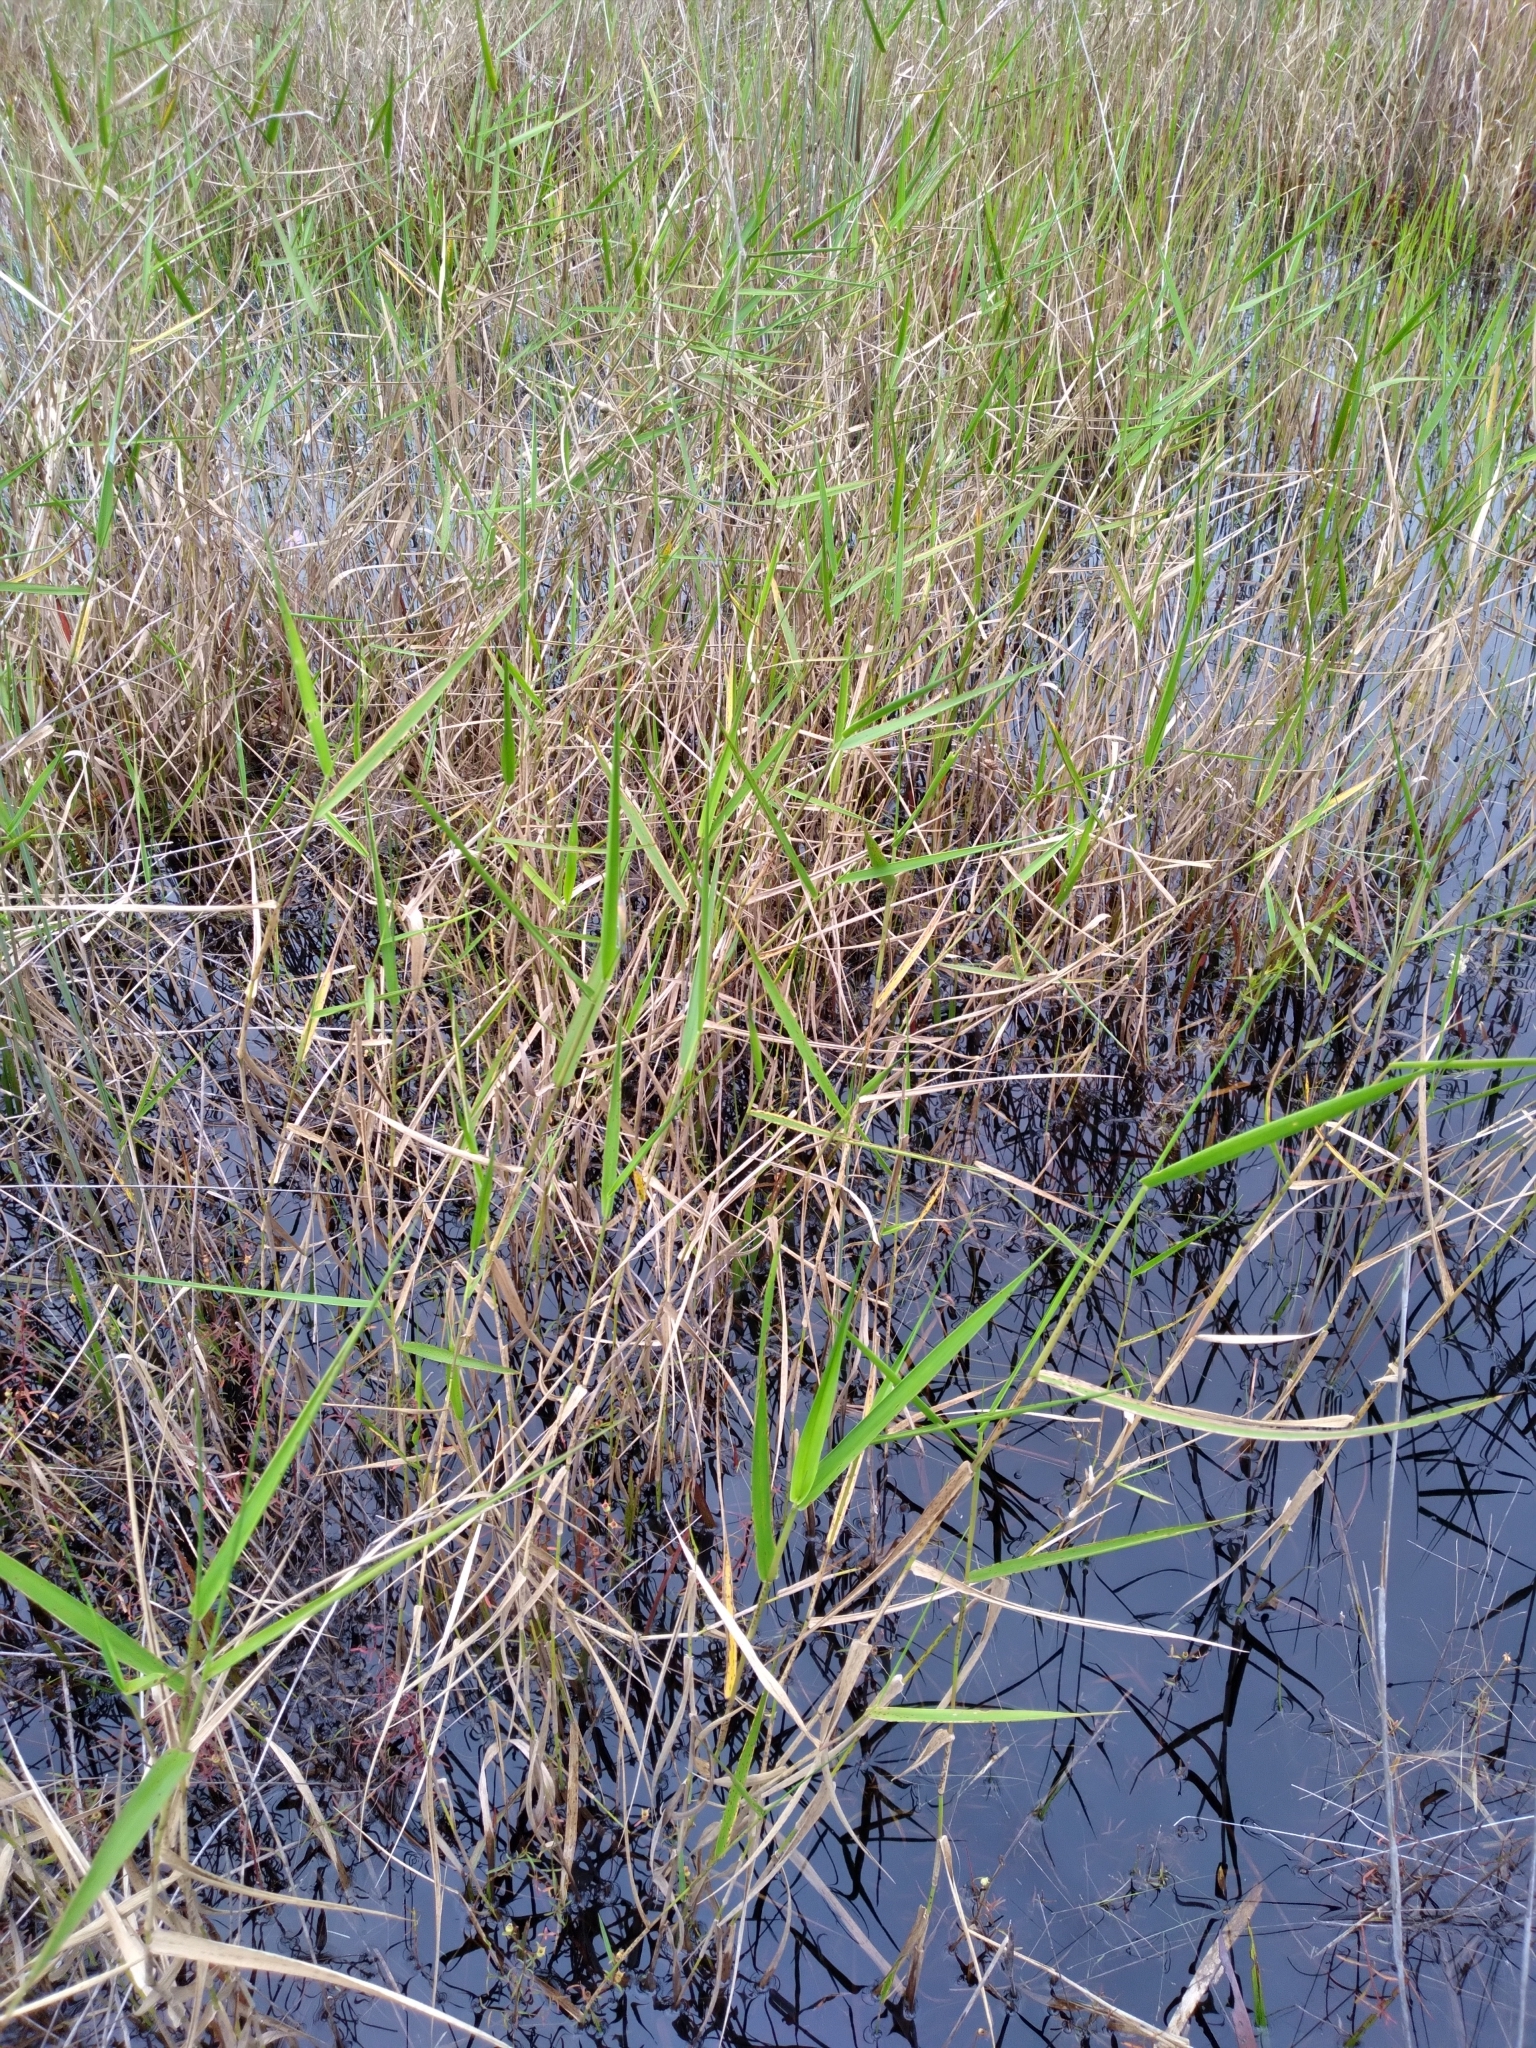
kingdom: Plantae
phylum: Tracheophyta
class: Liliopsida
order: Poales
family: Poaceae
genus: Panicum
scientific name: Panicum hemitomon
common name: Maidencane
